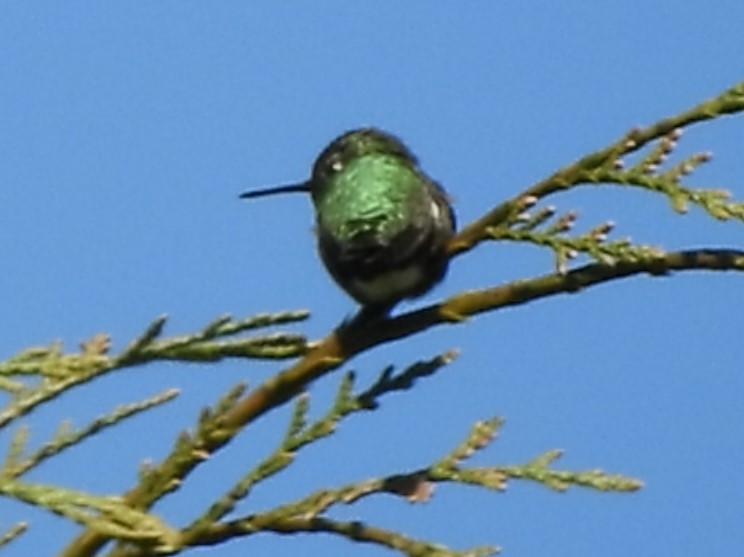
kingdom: Animalia
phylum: Chordata
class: Aves
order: Apodiformes
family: Trochilidae
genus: Calypte
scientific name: Calypte anna
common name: Anna's hummingbird
